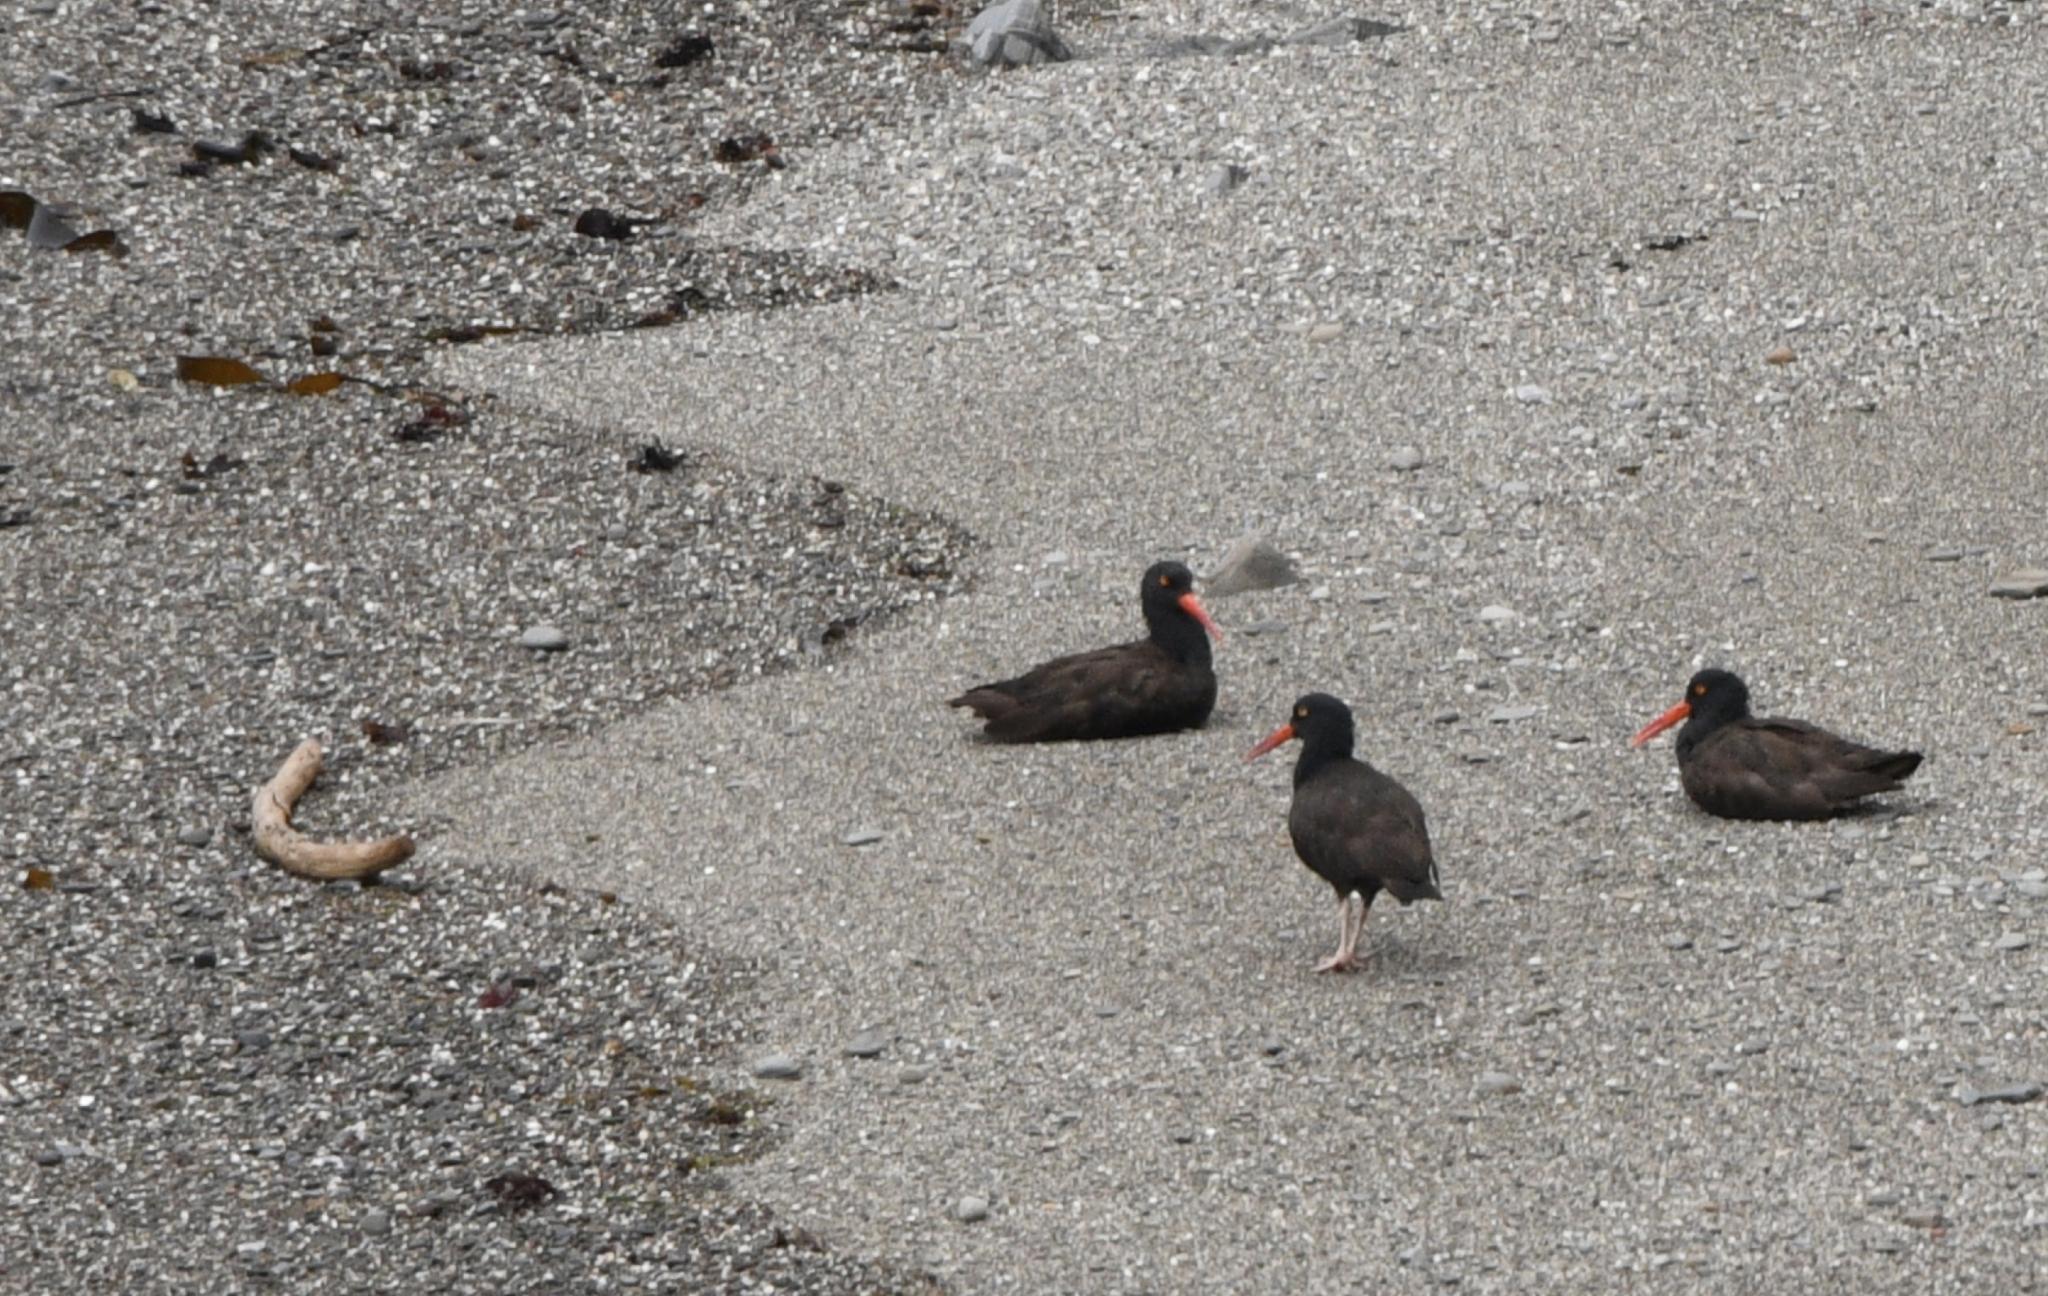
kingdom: Animalia
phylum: Chordata
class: Aves
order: Charadriiformes
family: Haematopodidae
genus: Haematopus
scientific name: Haematopus bachmani
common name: Black oystercatcher
